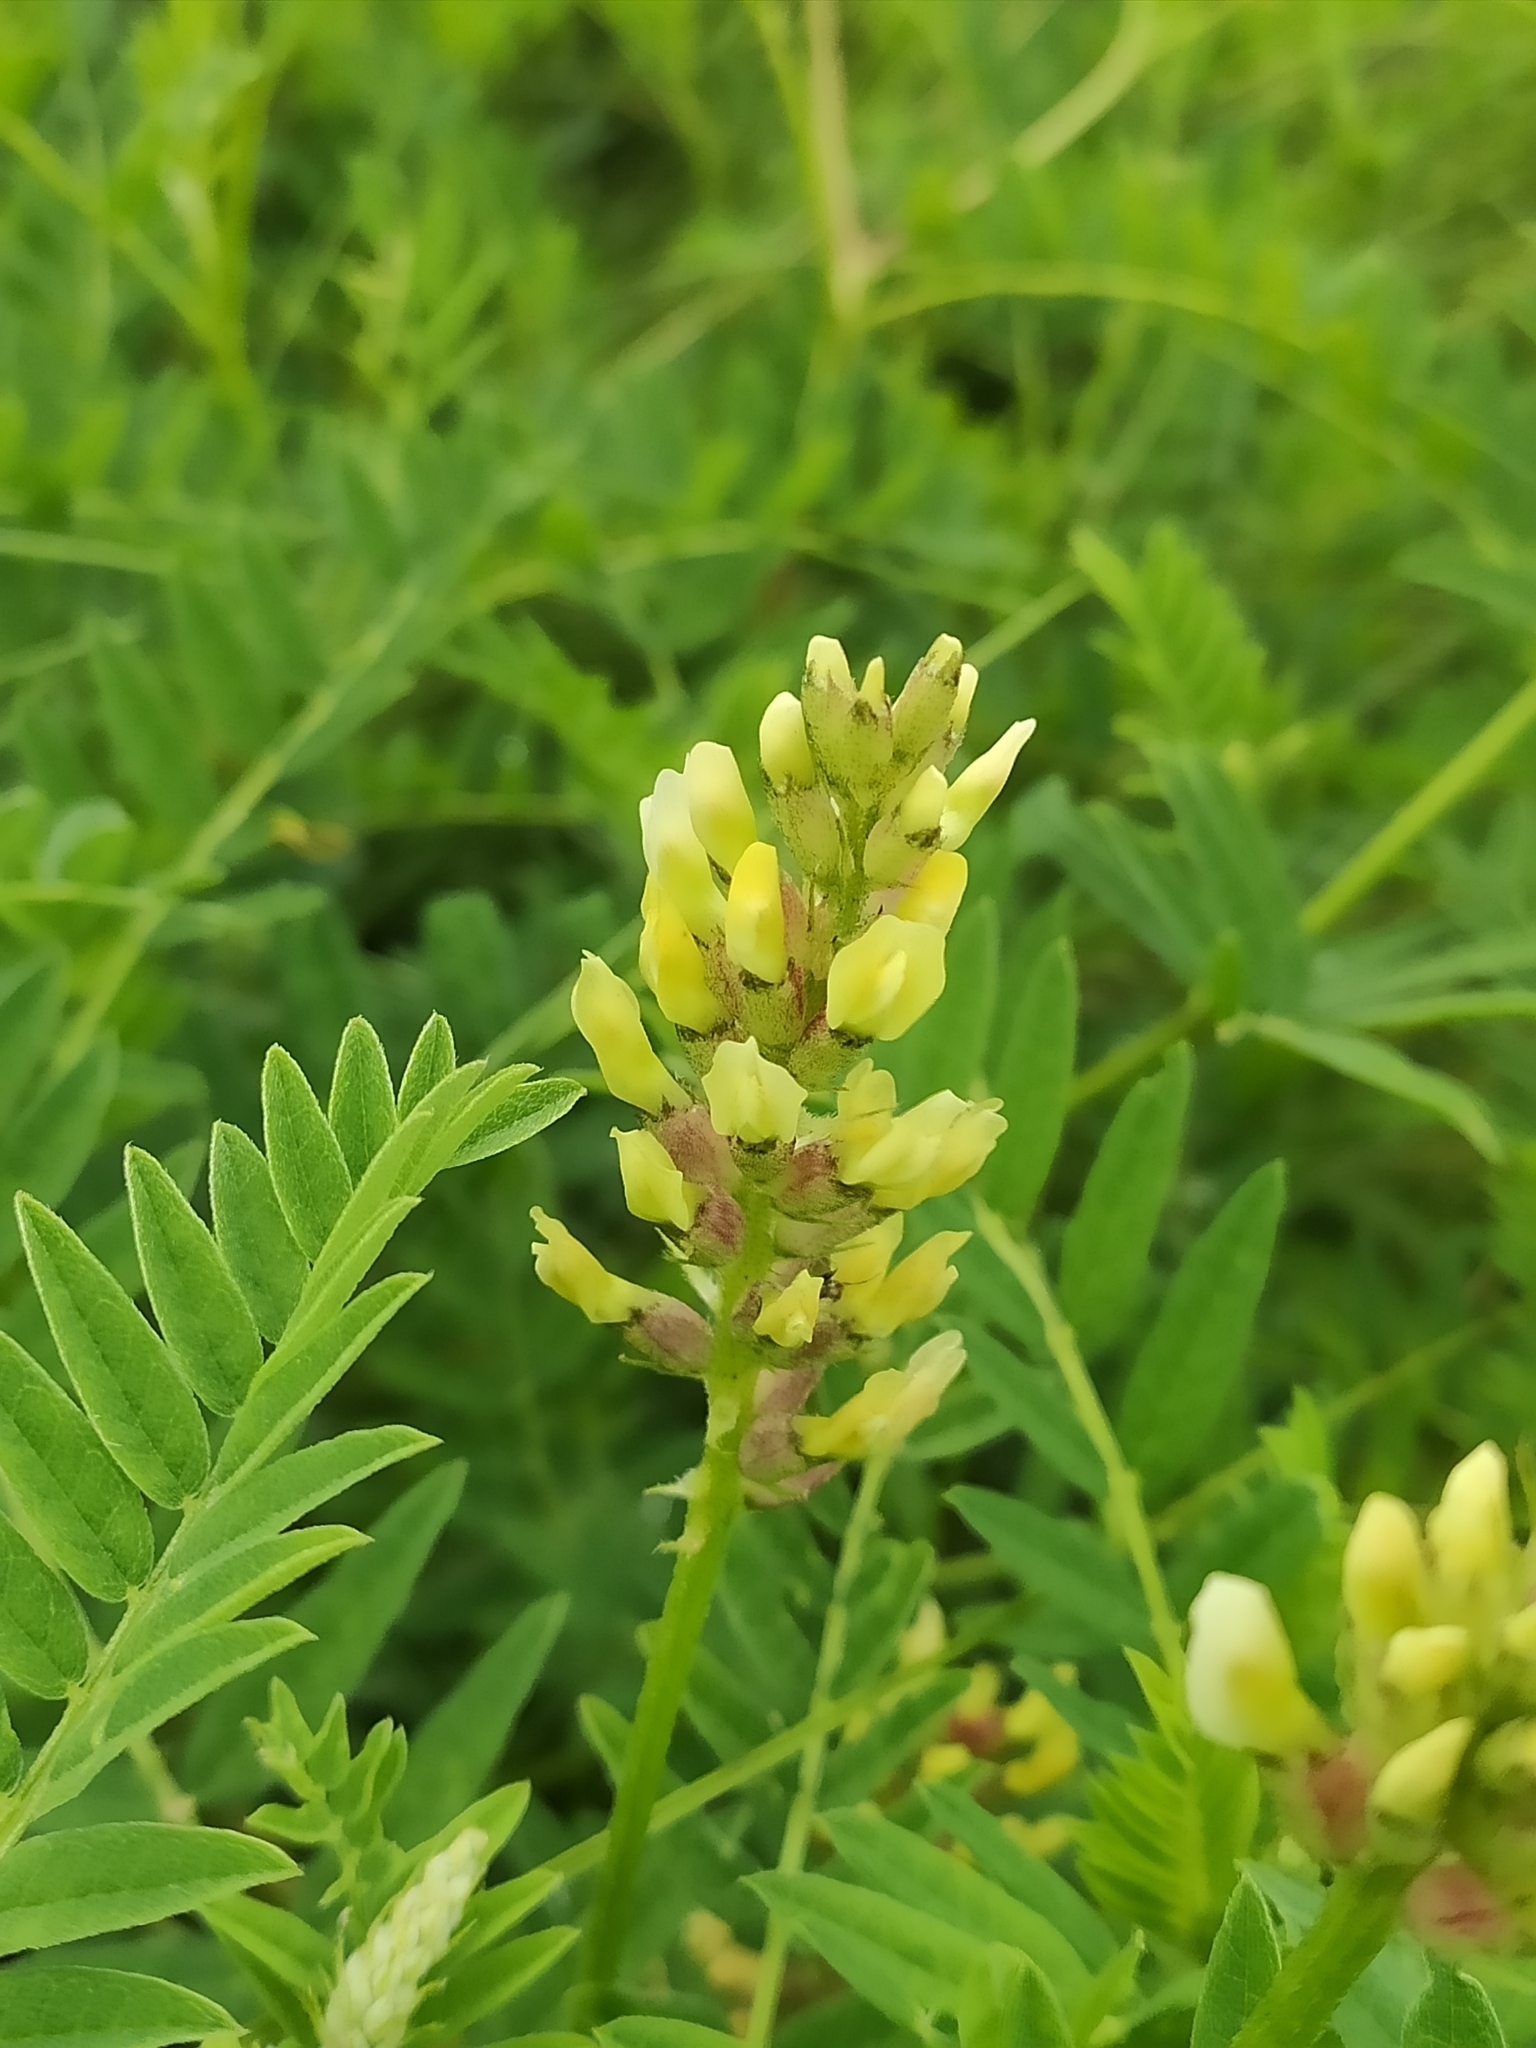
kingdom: Plantae
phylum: Tracheophyta
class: Magnoliopsida
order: Fabales
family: Fabaceae
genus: Astragalus
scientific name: Astragalus cicer
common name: Chick-pea milk-vetch
